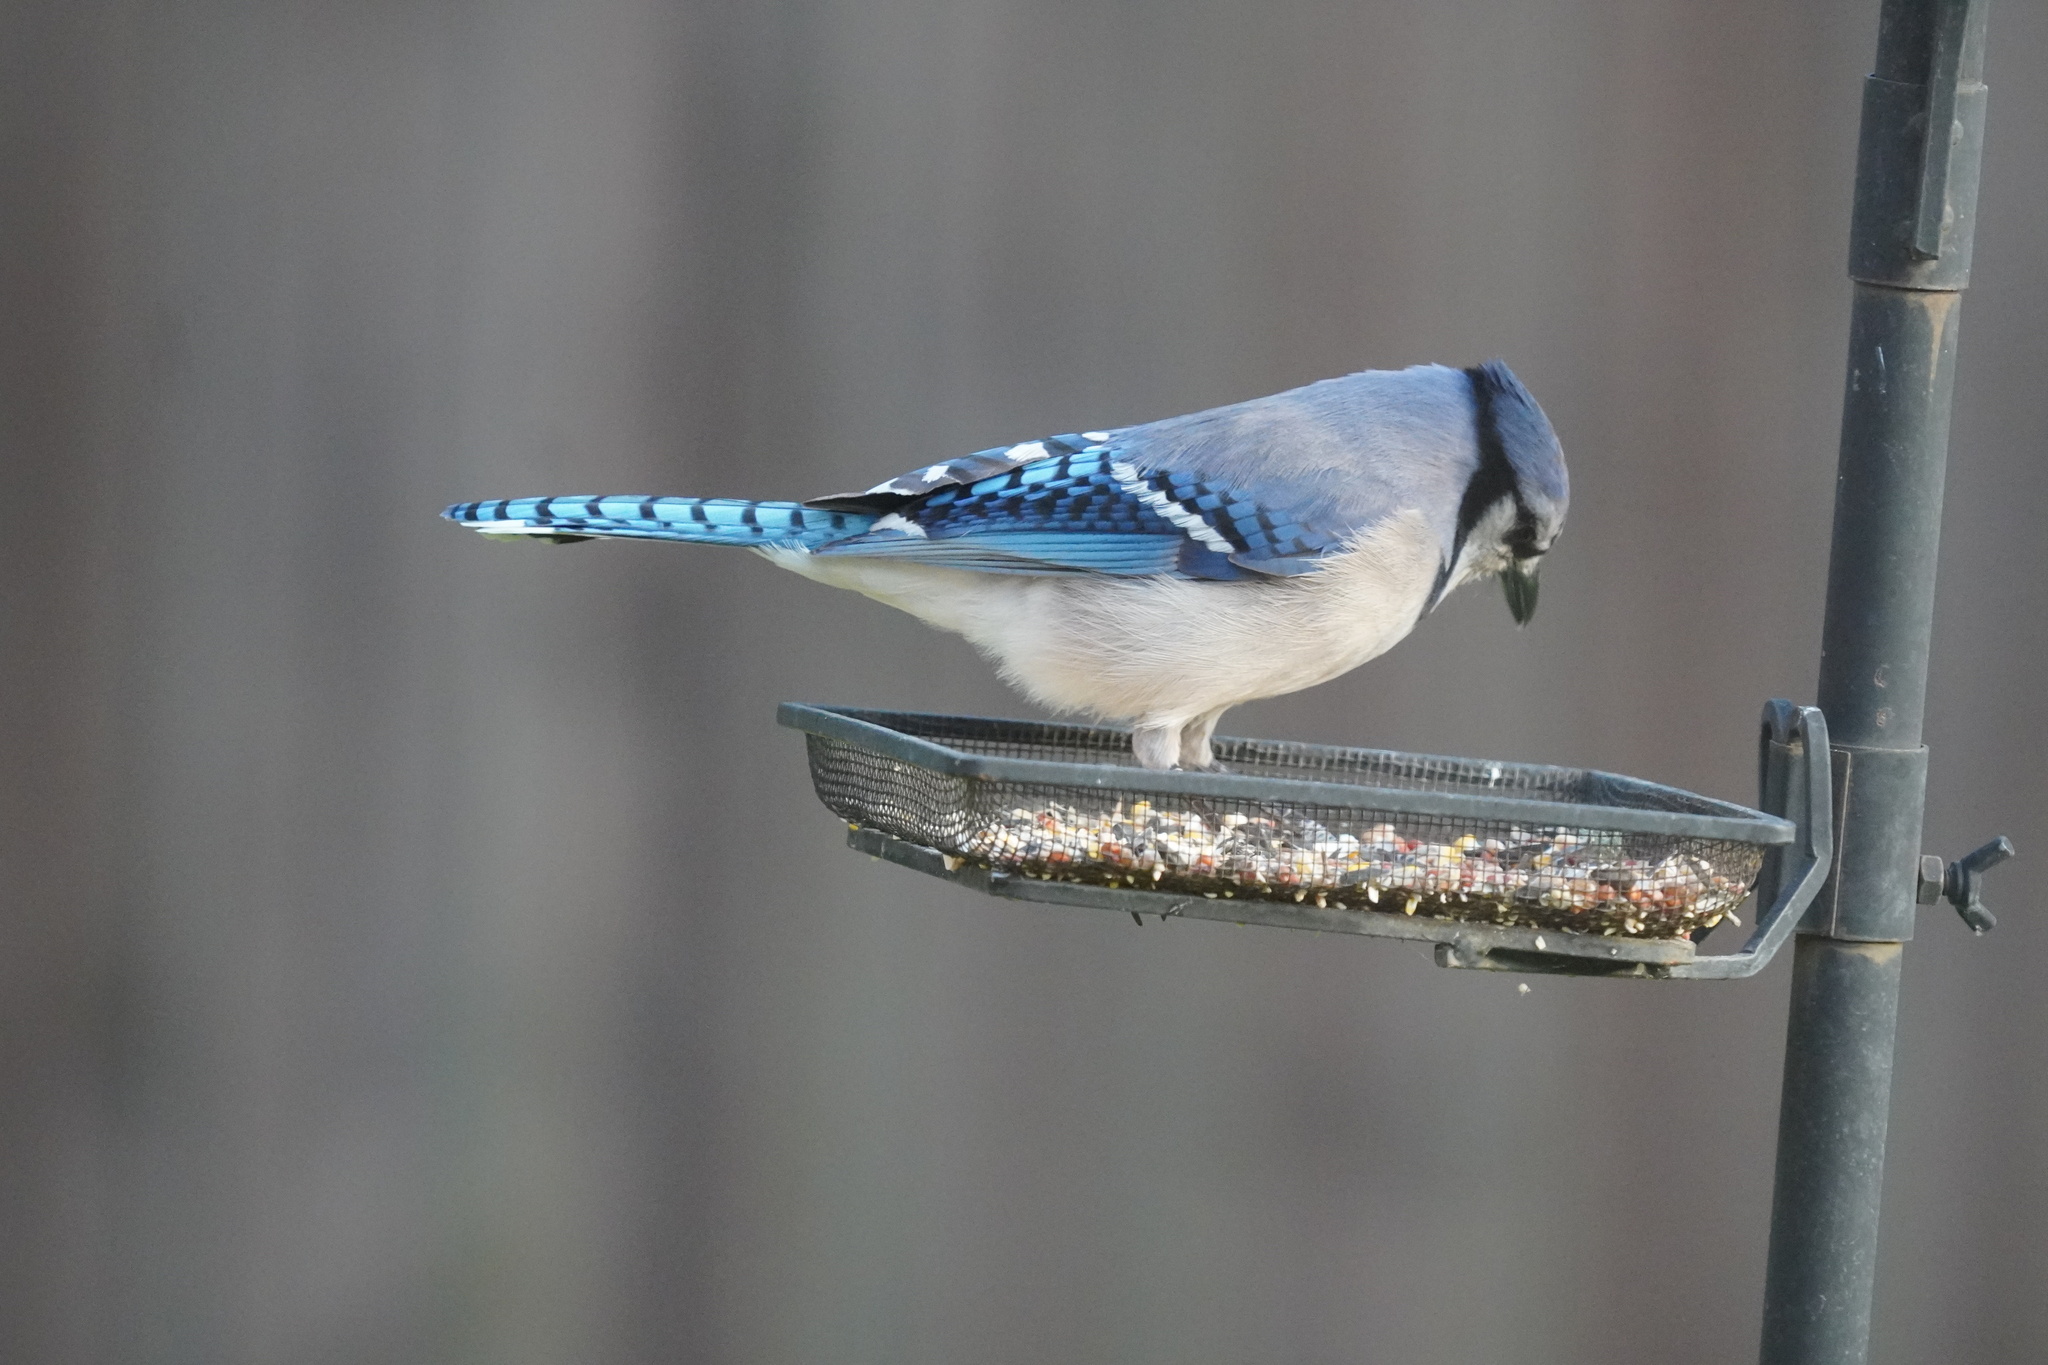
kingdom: Animalia
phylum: Chordata
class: Aves
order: Passeriformes
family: Corvidae
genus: Cyanocitta
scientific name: Cyanocitta cristata
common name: Blue jay
